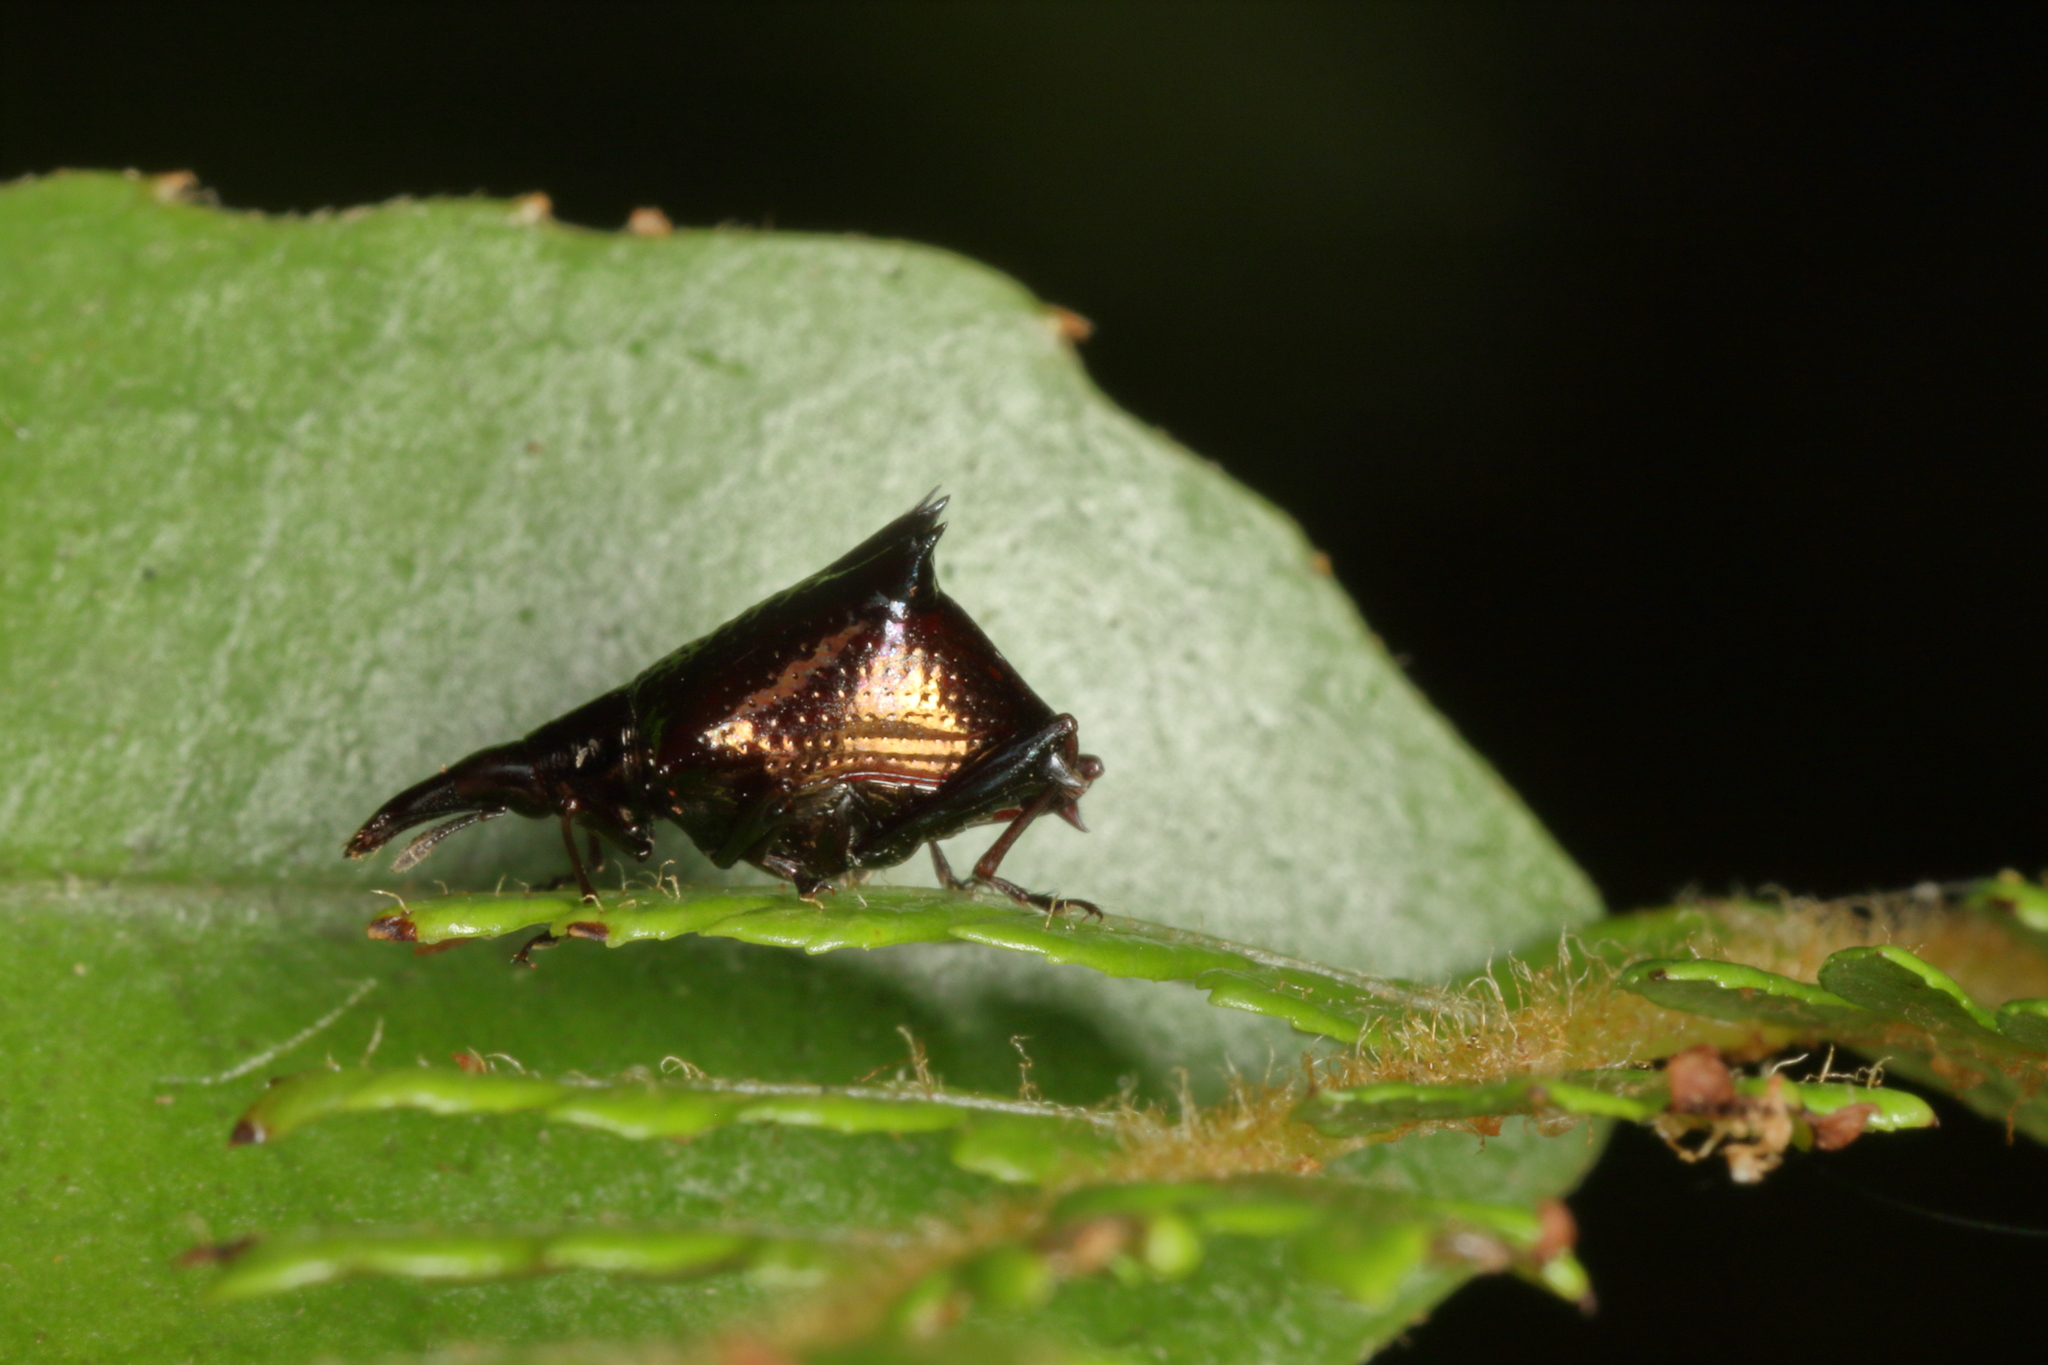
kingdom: Animalia
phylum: Arthropoda
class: Insecta
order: Coleoptera
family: Curculionidae
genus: Scolopterus
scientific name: Scolopterus aequus
